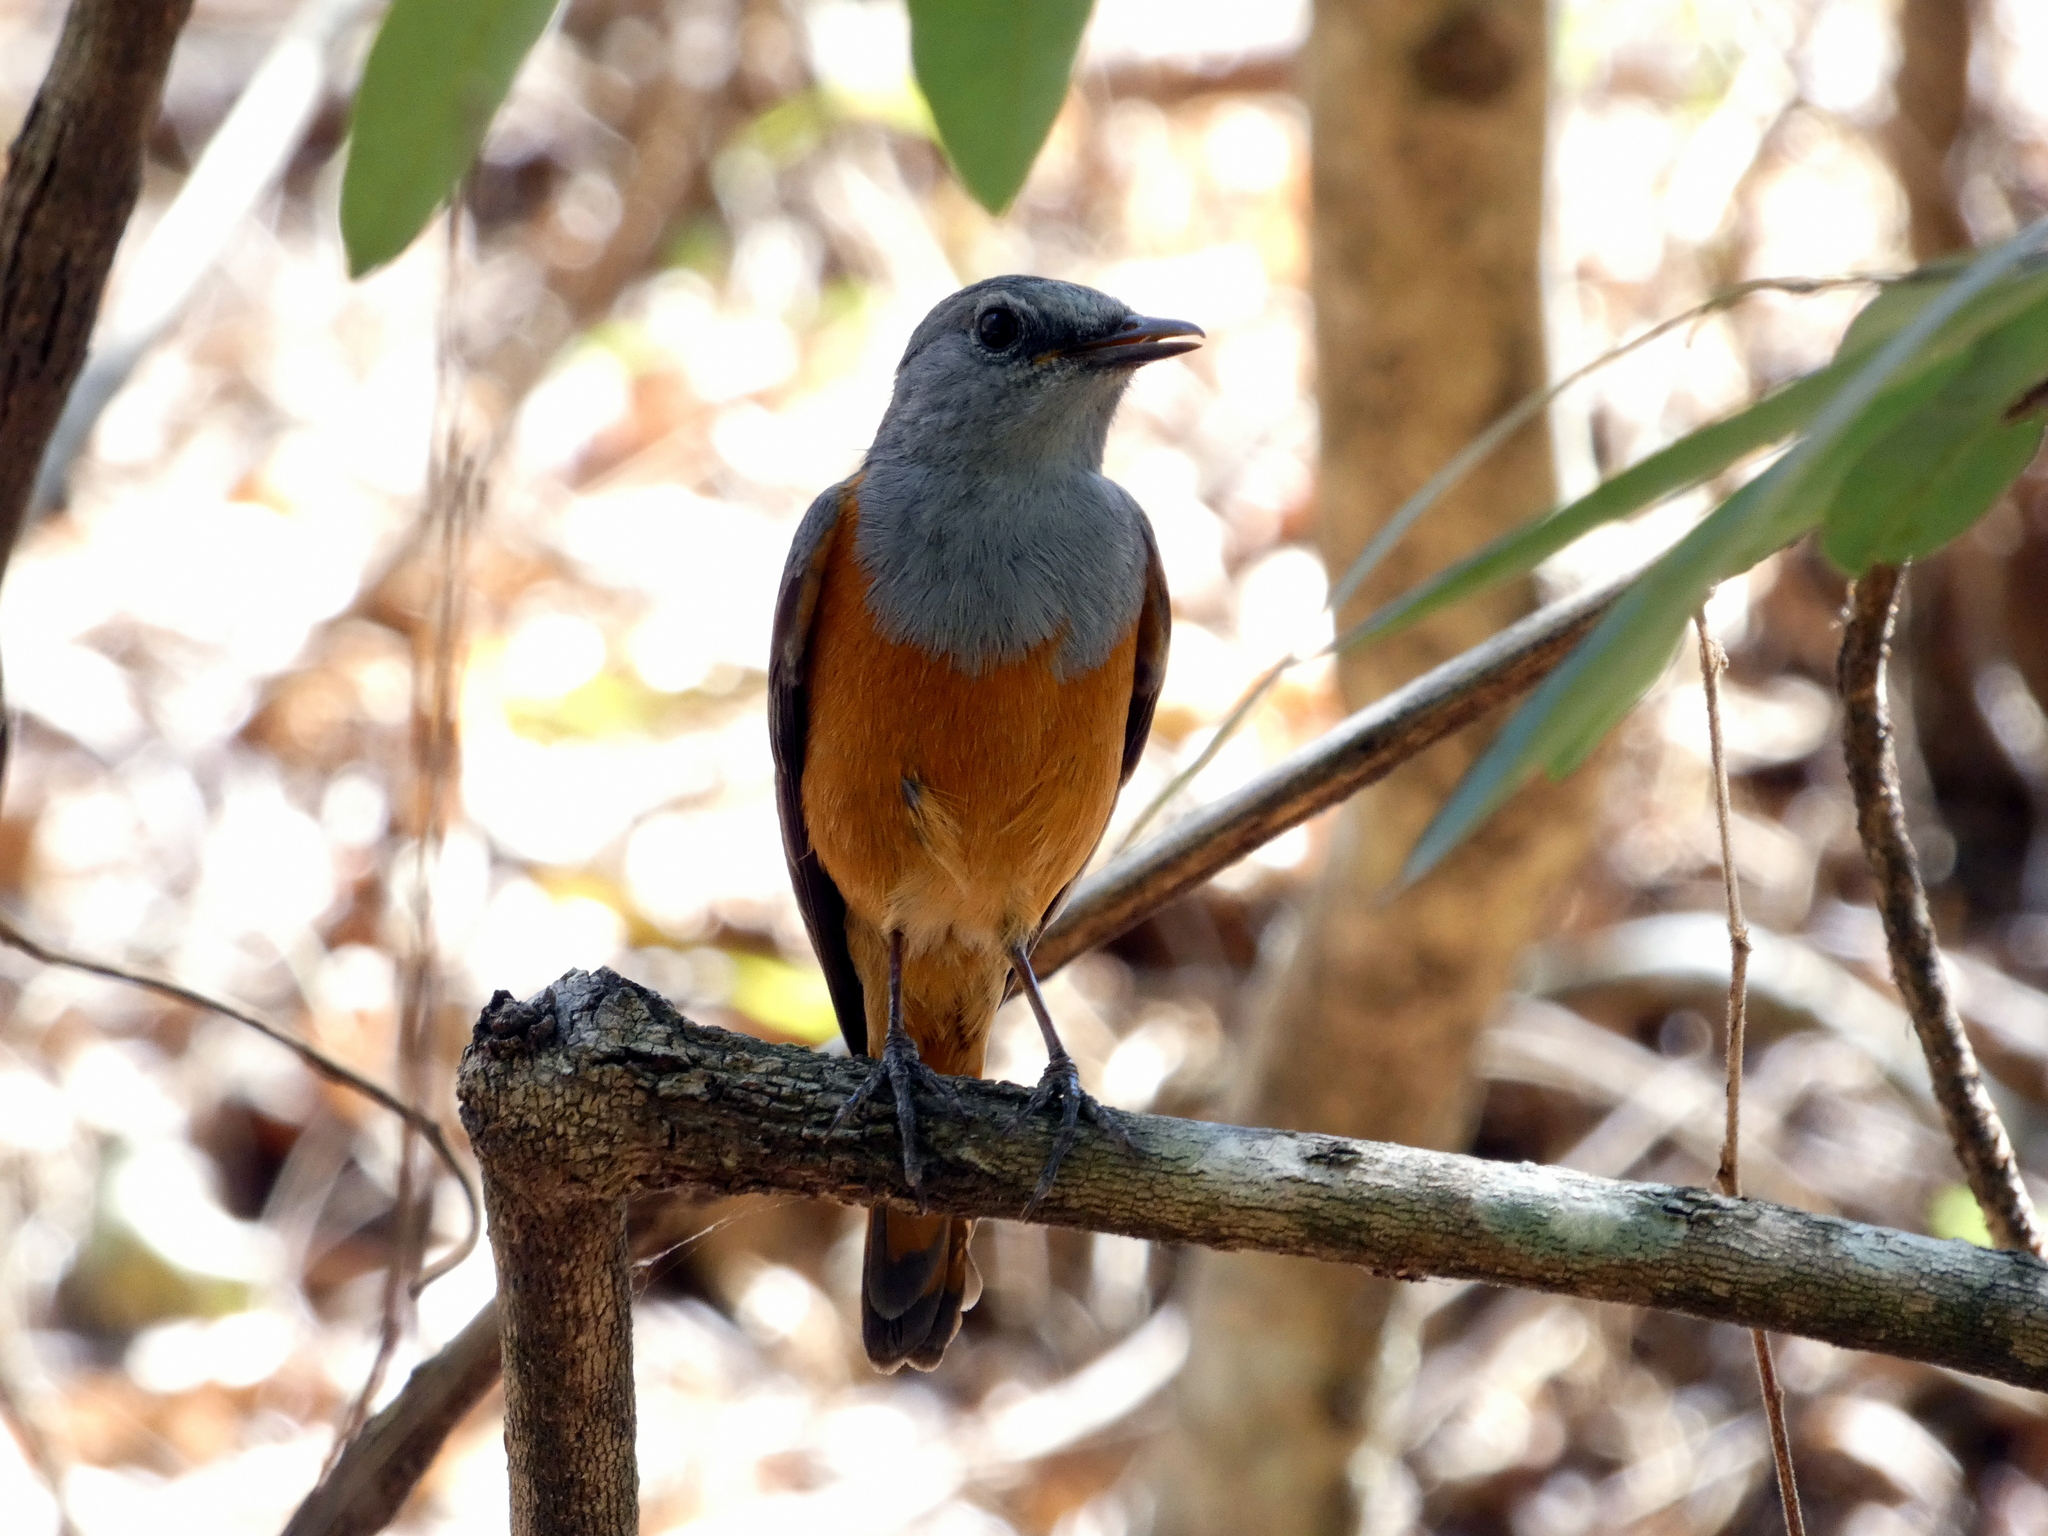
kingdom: Animalia
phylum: Chordata
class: Aves
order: Passeriformes
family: Muscicapidae
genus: Monticola
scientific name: Monticola sharpei
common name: Forest rock-thrush
